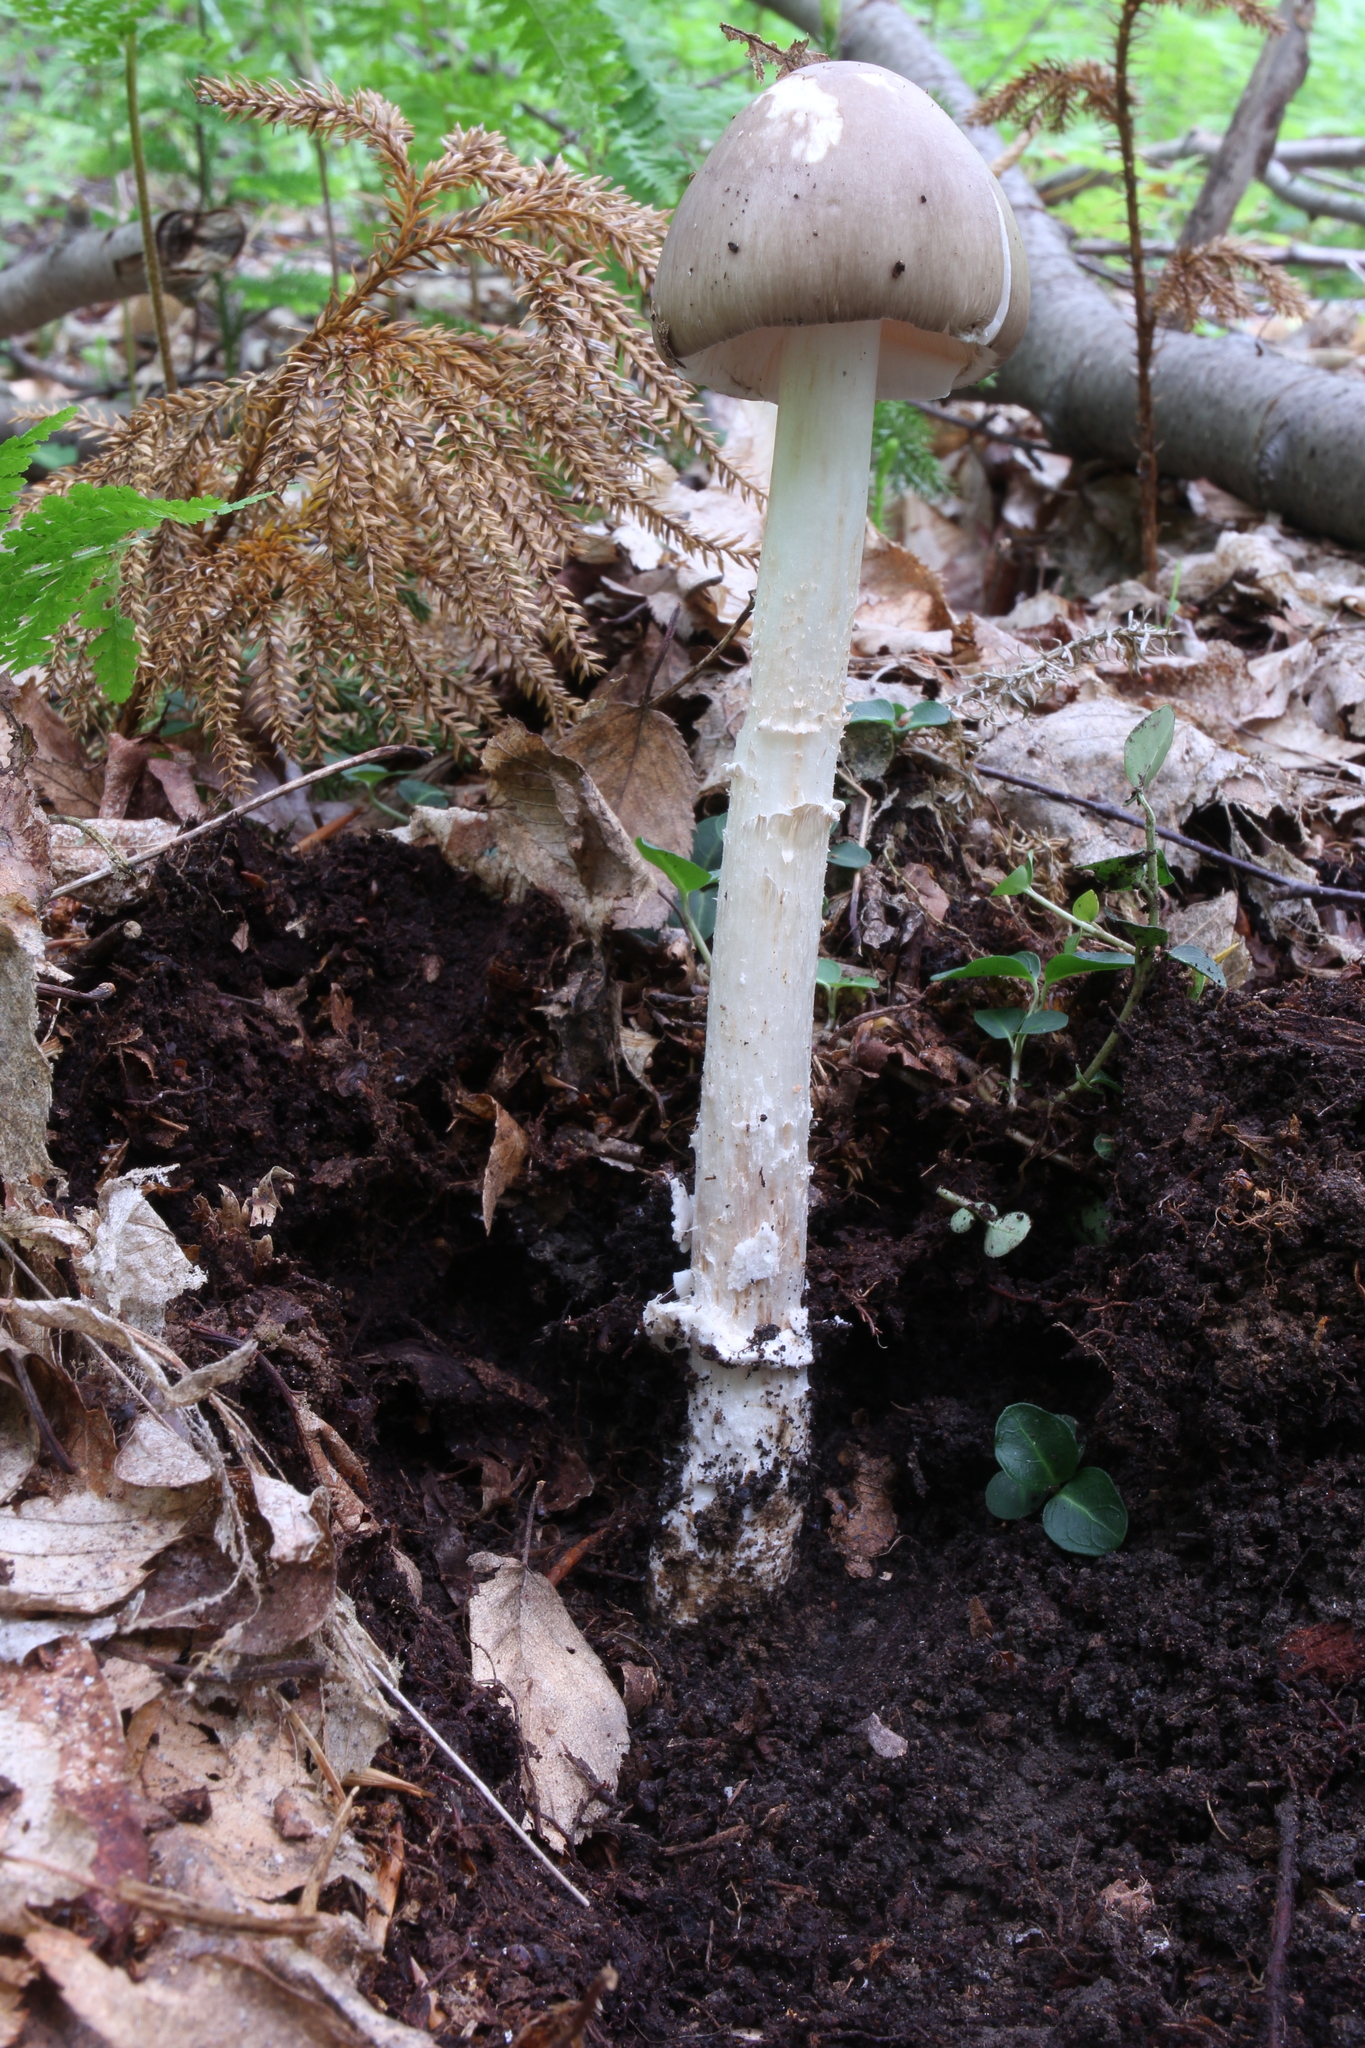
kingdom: Fungi
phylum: Basidiomycota
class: Agaricomycetes
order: Agaricales
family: Amanitaceae
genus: Amanita
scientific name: Amanita submaculata
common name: Ball gown amanita
